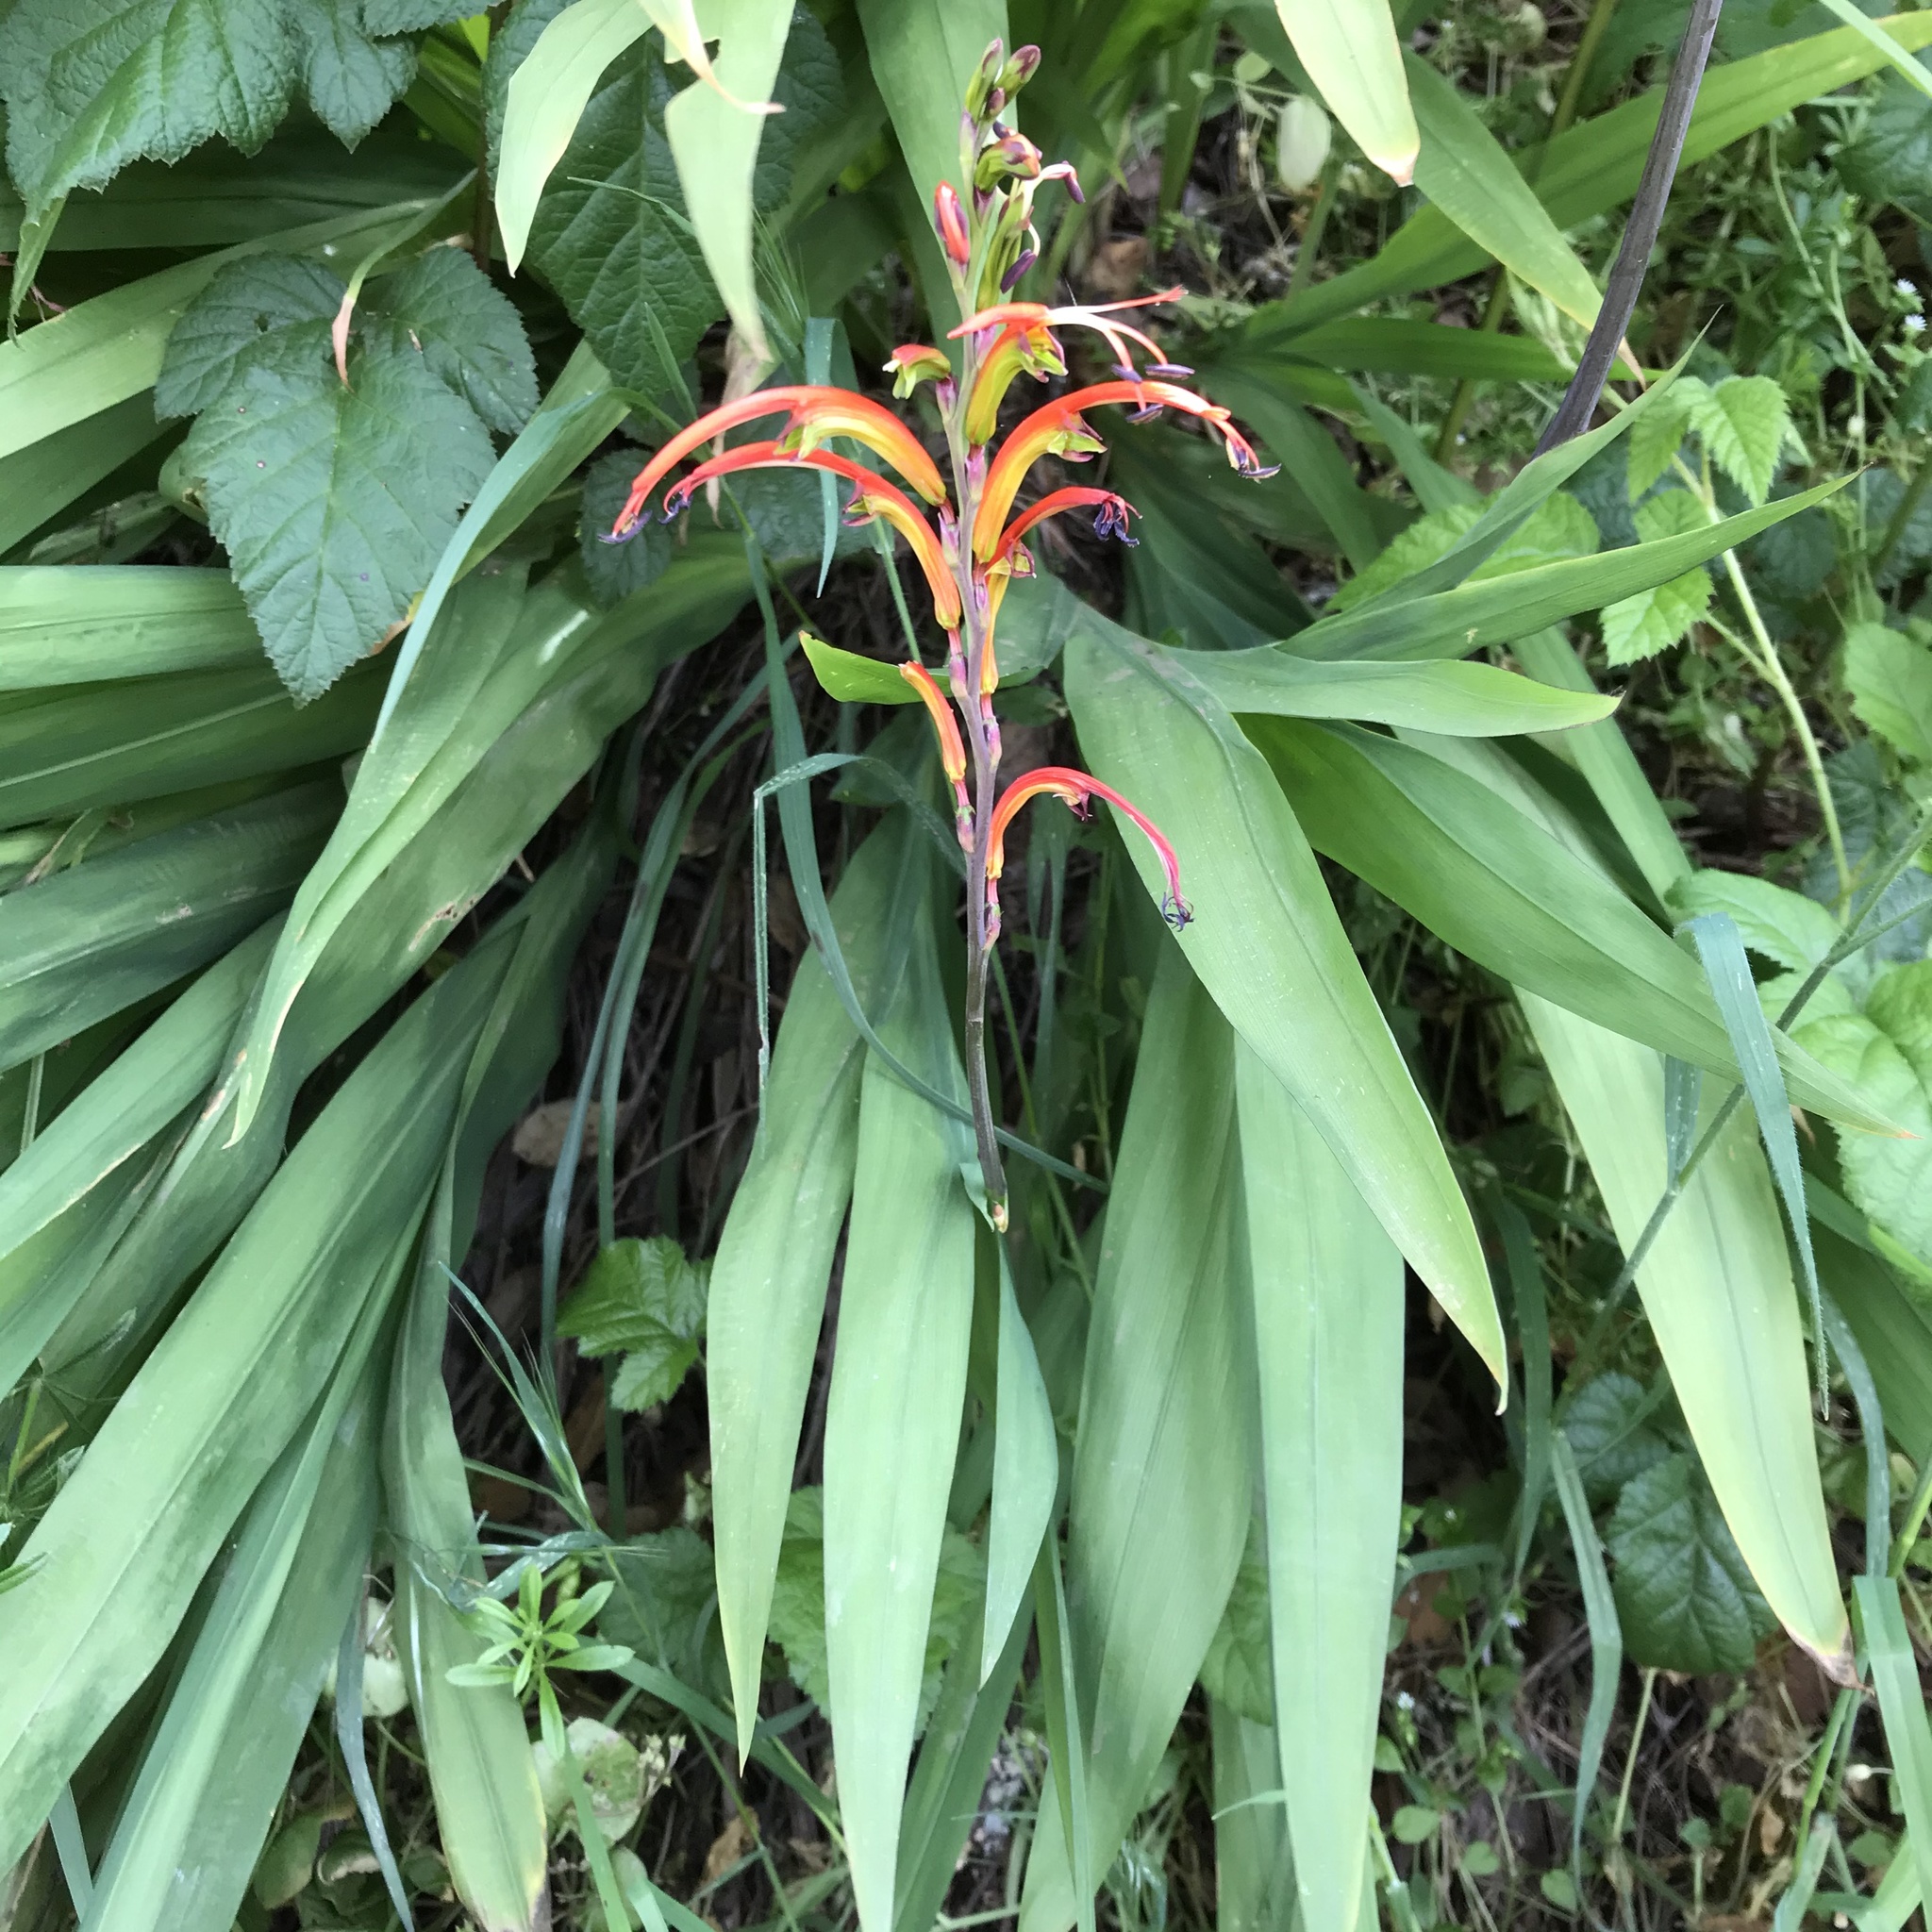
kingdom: Plantae
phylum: Tracheophyta
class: Liliopsida
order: Asparagales
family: Iridaceae
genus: Chasmanthe
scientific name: Chasmanthe bicolor
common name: Bicolor cobra lily
